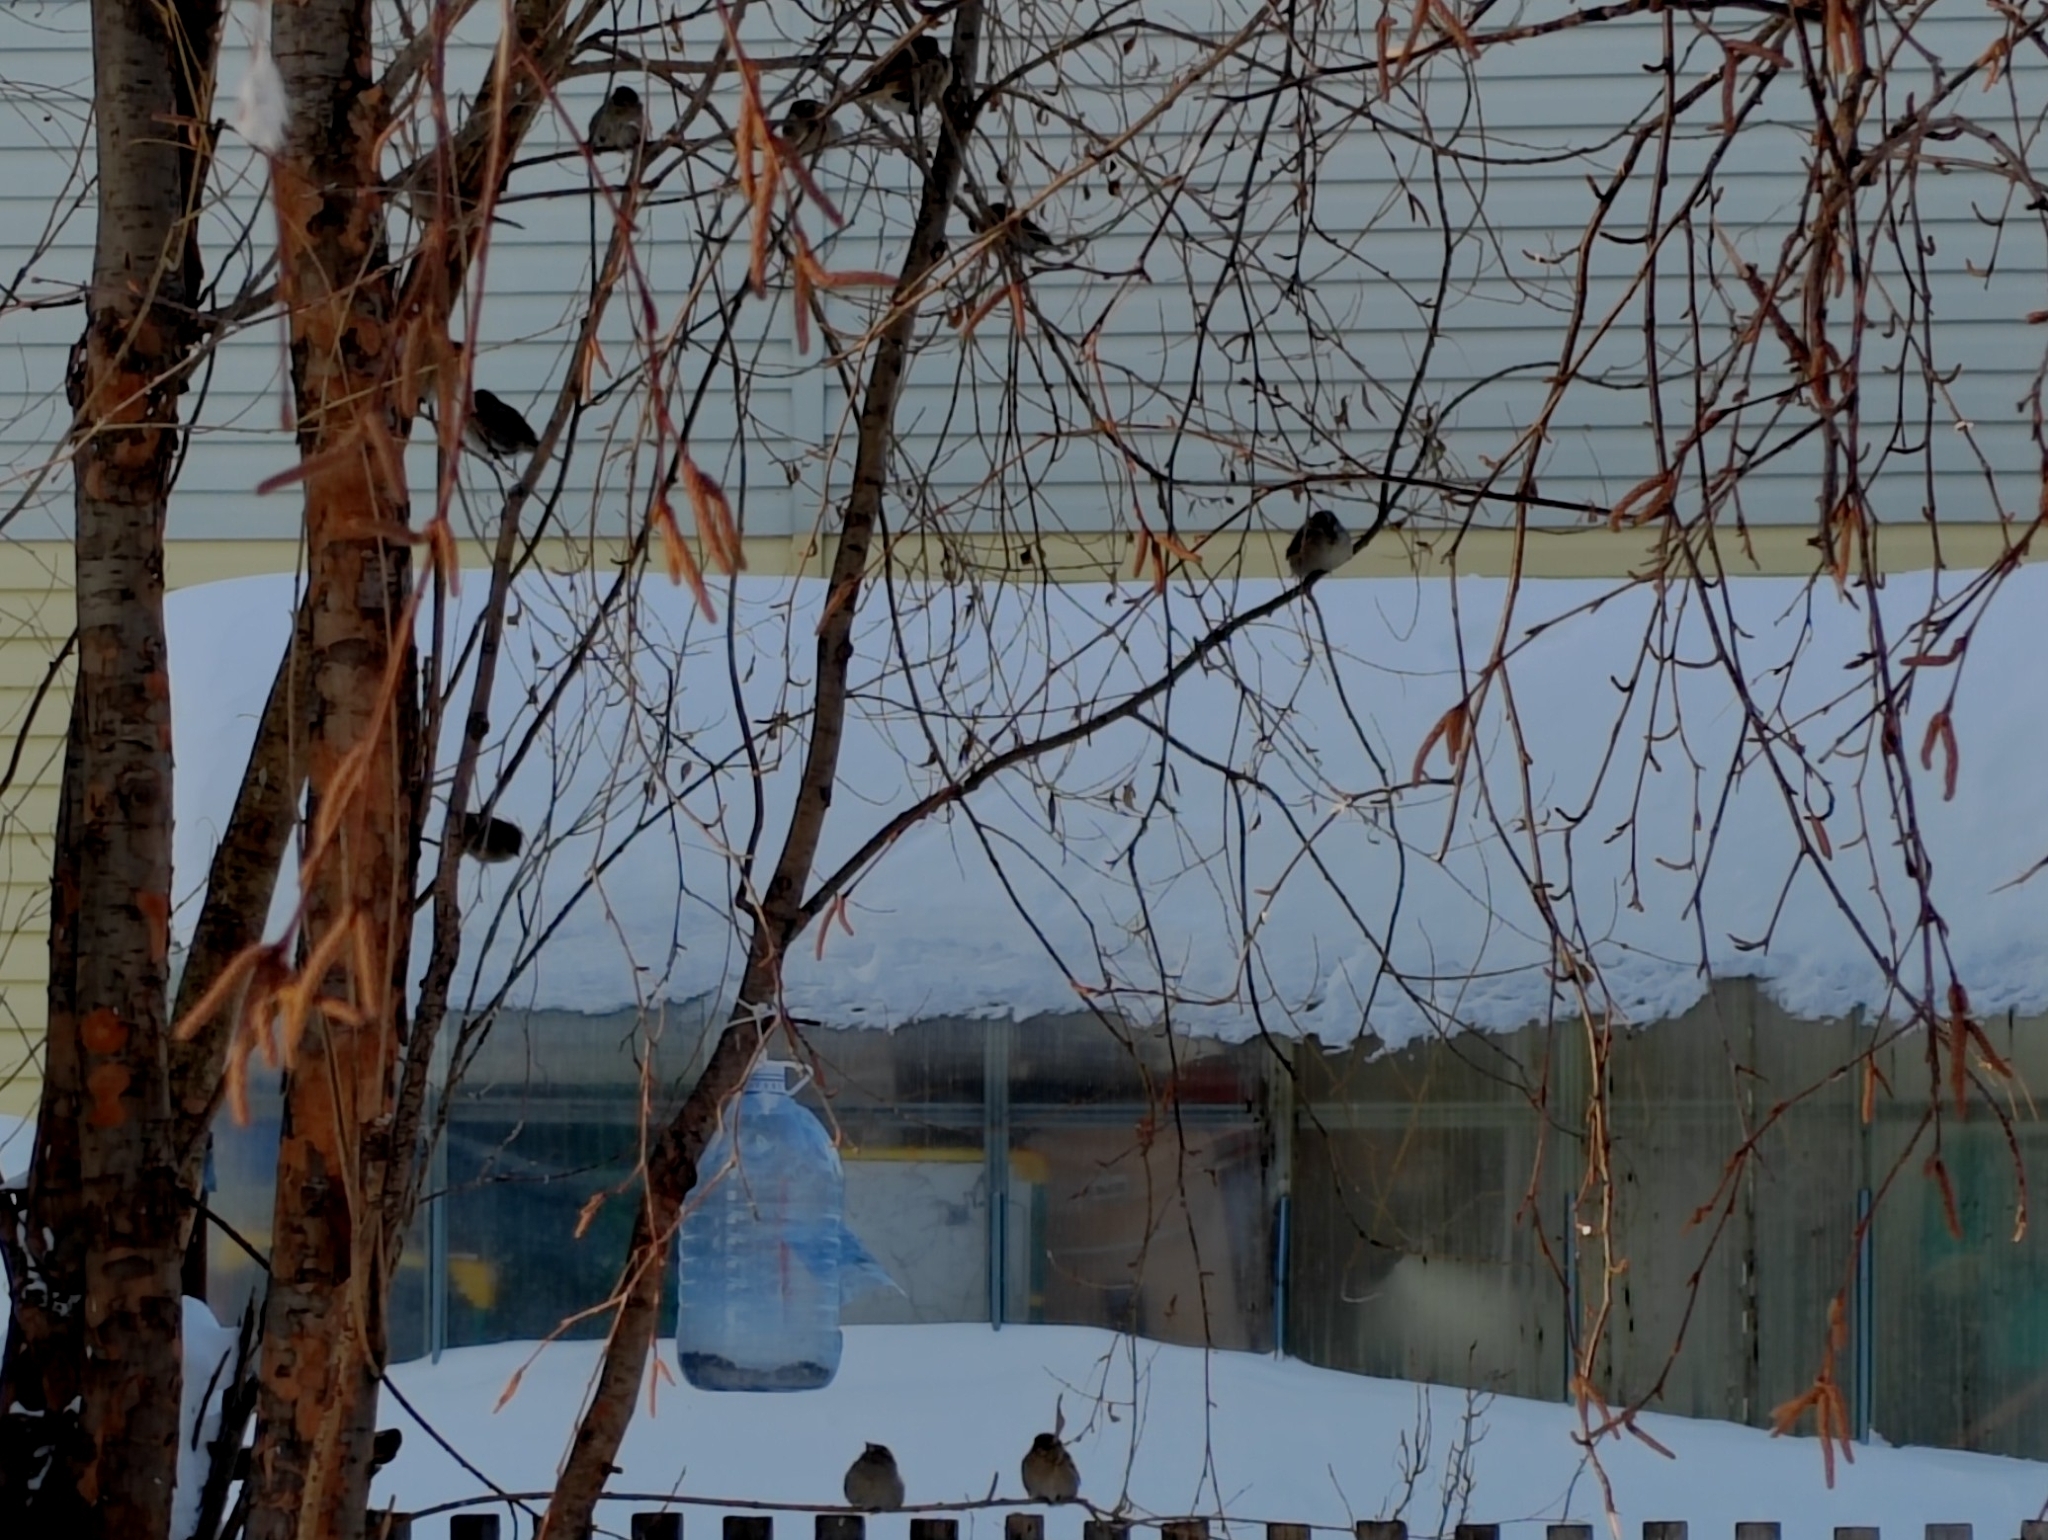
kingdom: Animalia
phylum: Chordata
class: Aves
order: Passeriformes
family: Passeridae
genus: Passer
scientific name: Passer domesticus
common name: House sparrow
